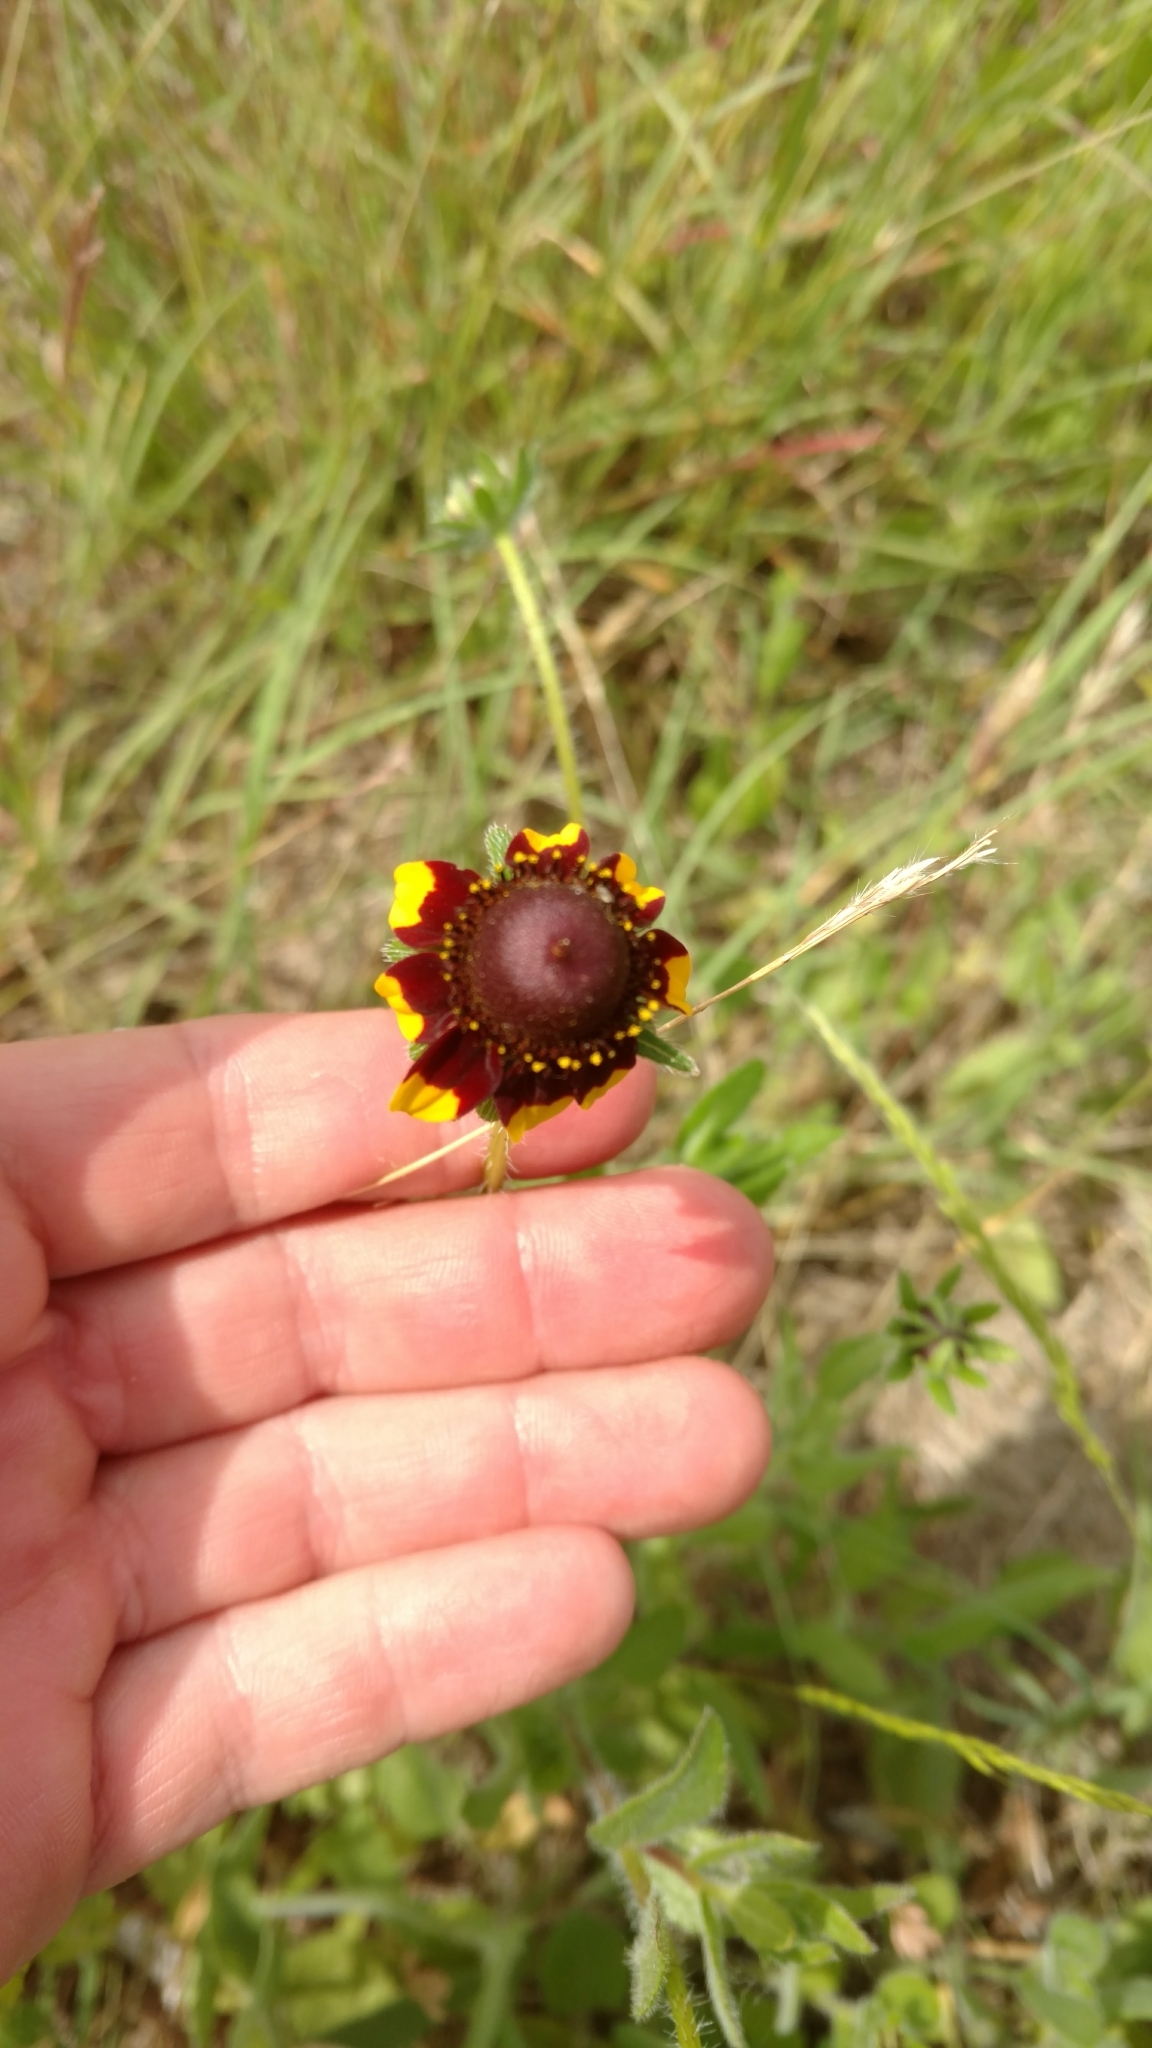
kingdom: Plantae
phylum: Tracheophyta
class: Magnoliopsida
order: Asterales
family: Asteraceae
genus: Rudbeckia
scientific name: Rudbeckia hirta
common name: Black-eyed-susan
